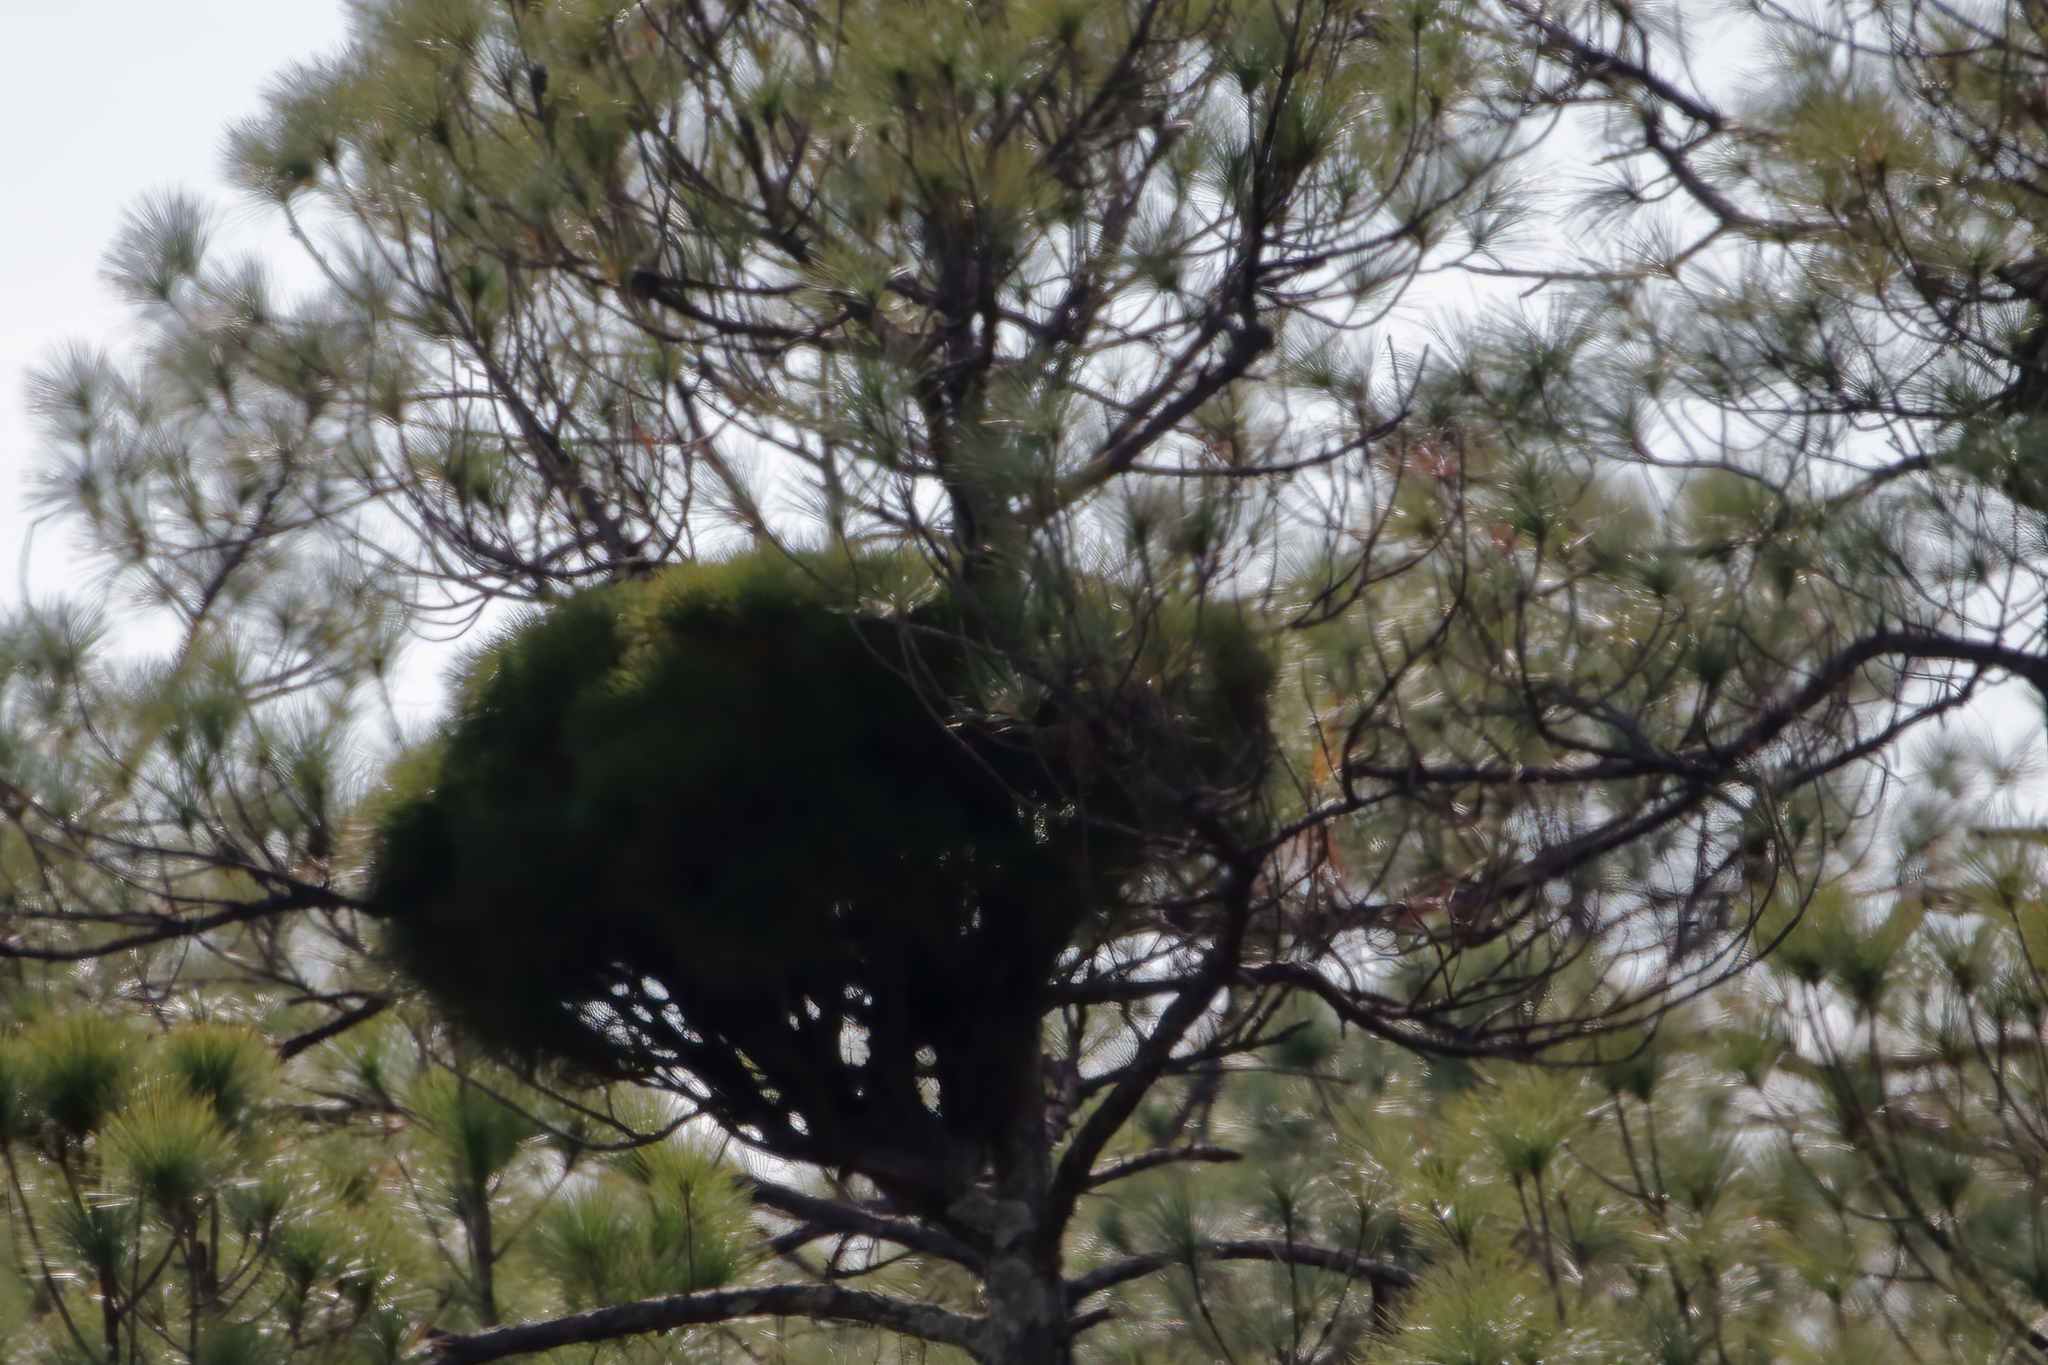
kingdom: Bacteria
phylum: Firmicutes
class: Bacilli
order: Acholeplasmatales
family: Acholeplasmataceae
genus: Phytoplasma
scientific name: Phytoplasma pini
